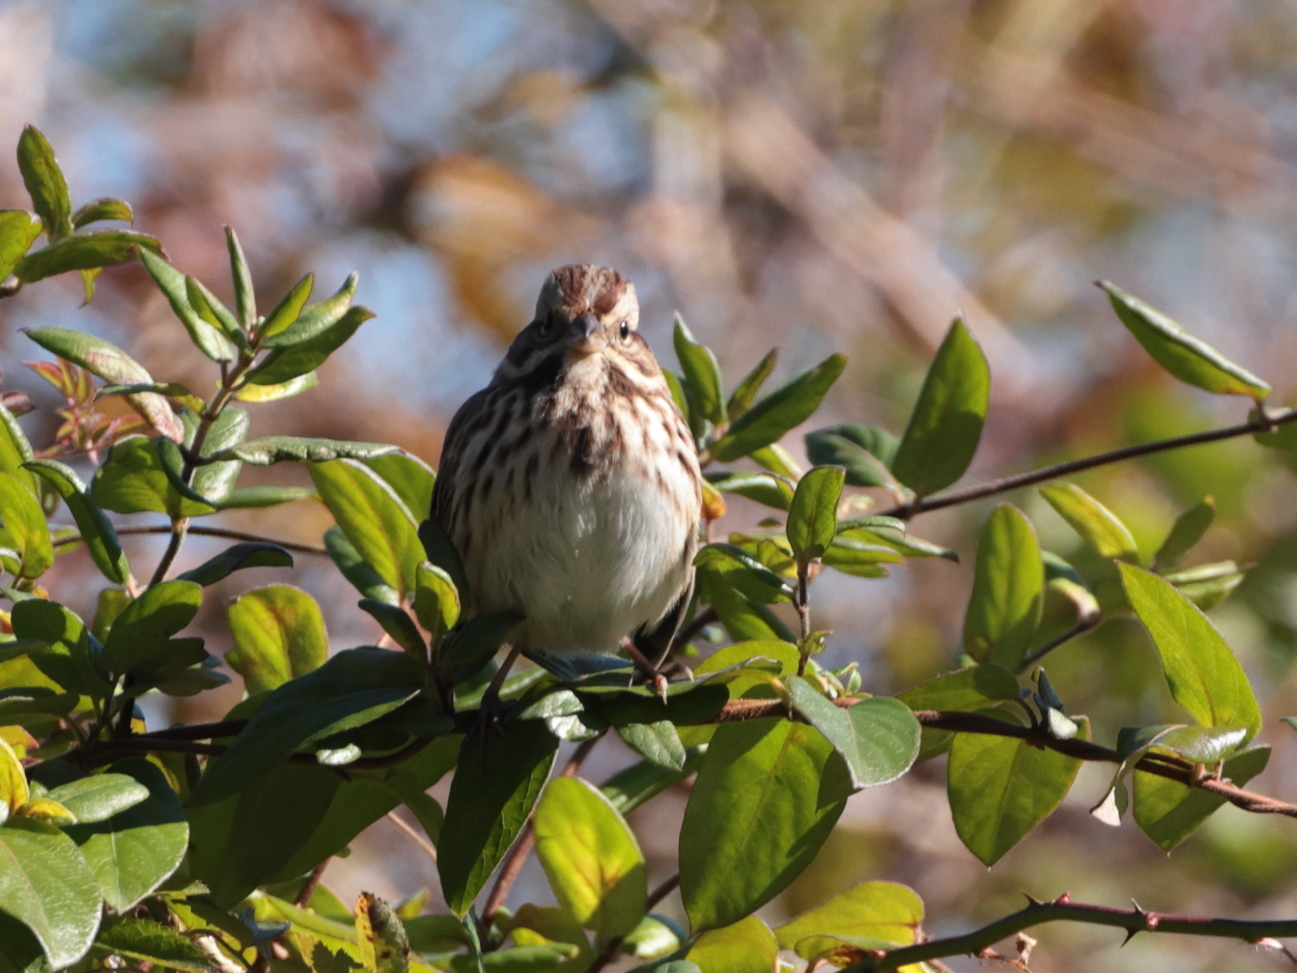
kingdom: Animalia
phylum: Chordata
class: Aves
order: Passeriformes
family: Passerellidae
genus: Melospiza
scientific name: Melospiza melodia
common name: Song sparrow
